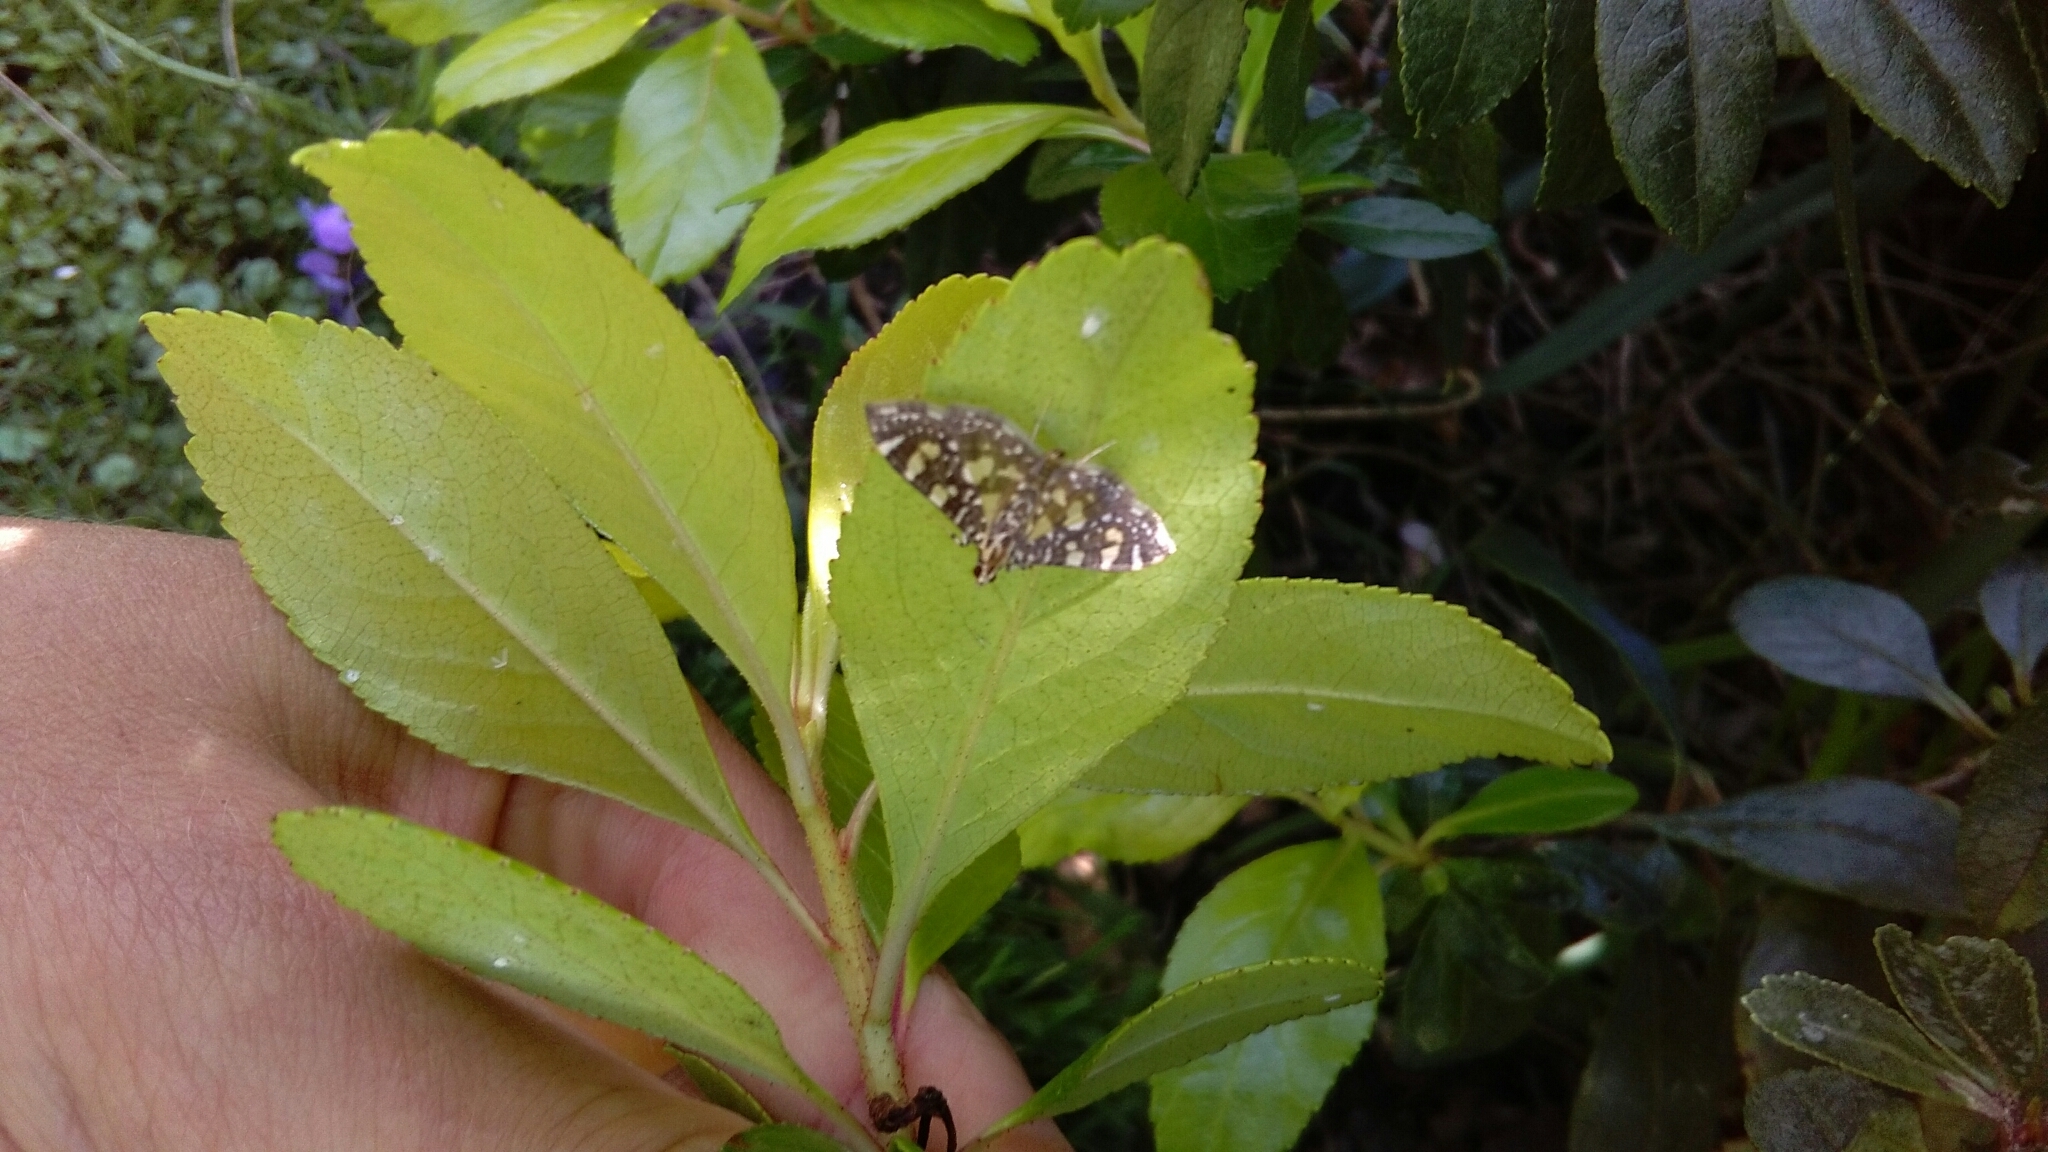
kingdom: Animalia
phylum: Arthropoda
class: Insecta
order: Lepidoptera
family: Crambidae
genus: Glyphodes
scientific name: Glyphodes onychinalis
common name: Swan plant moth
